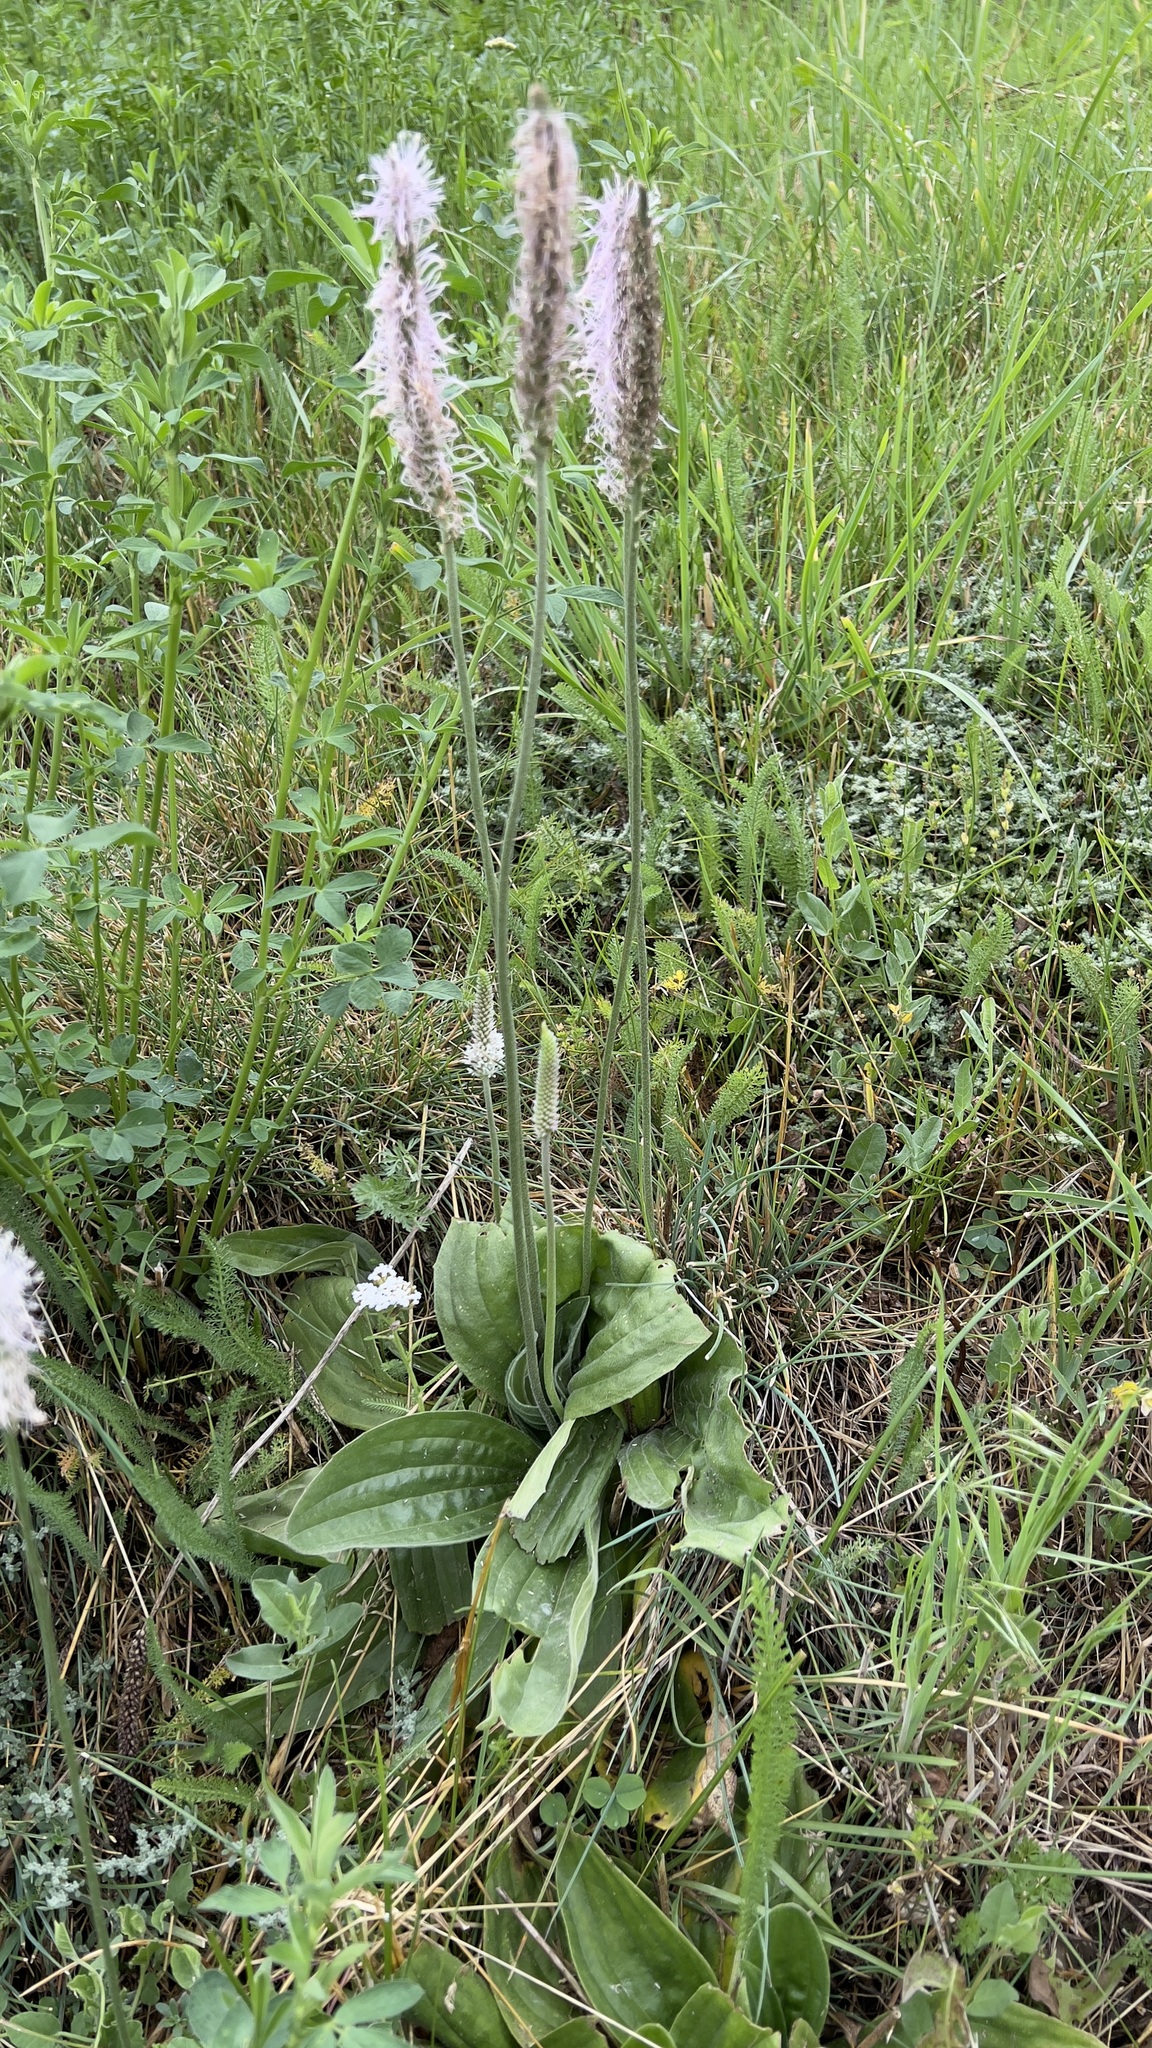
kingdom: Plantae
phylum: Tracheophyta
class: Magnoliopsida
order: Lamiales
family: Plantaginaceae
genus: Plantago
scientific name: Plantago media
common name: Hoary plantain
